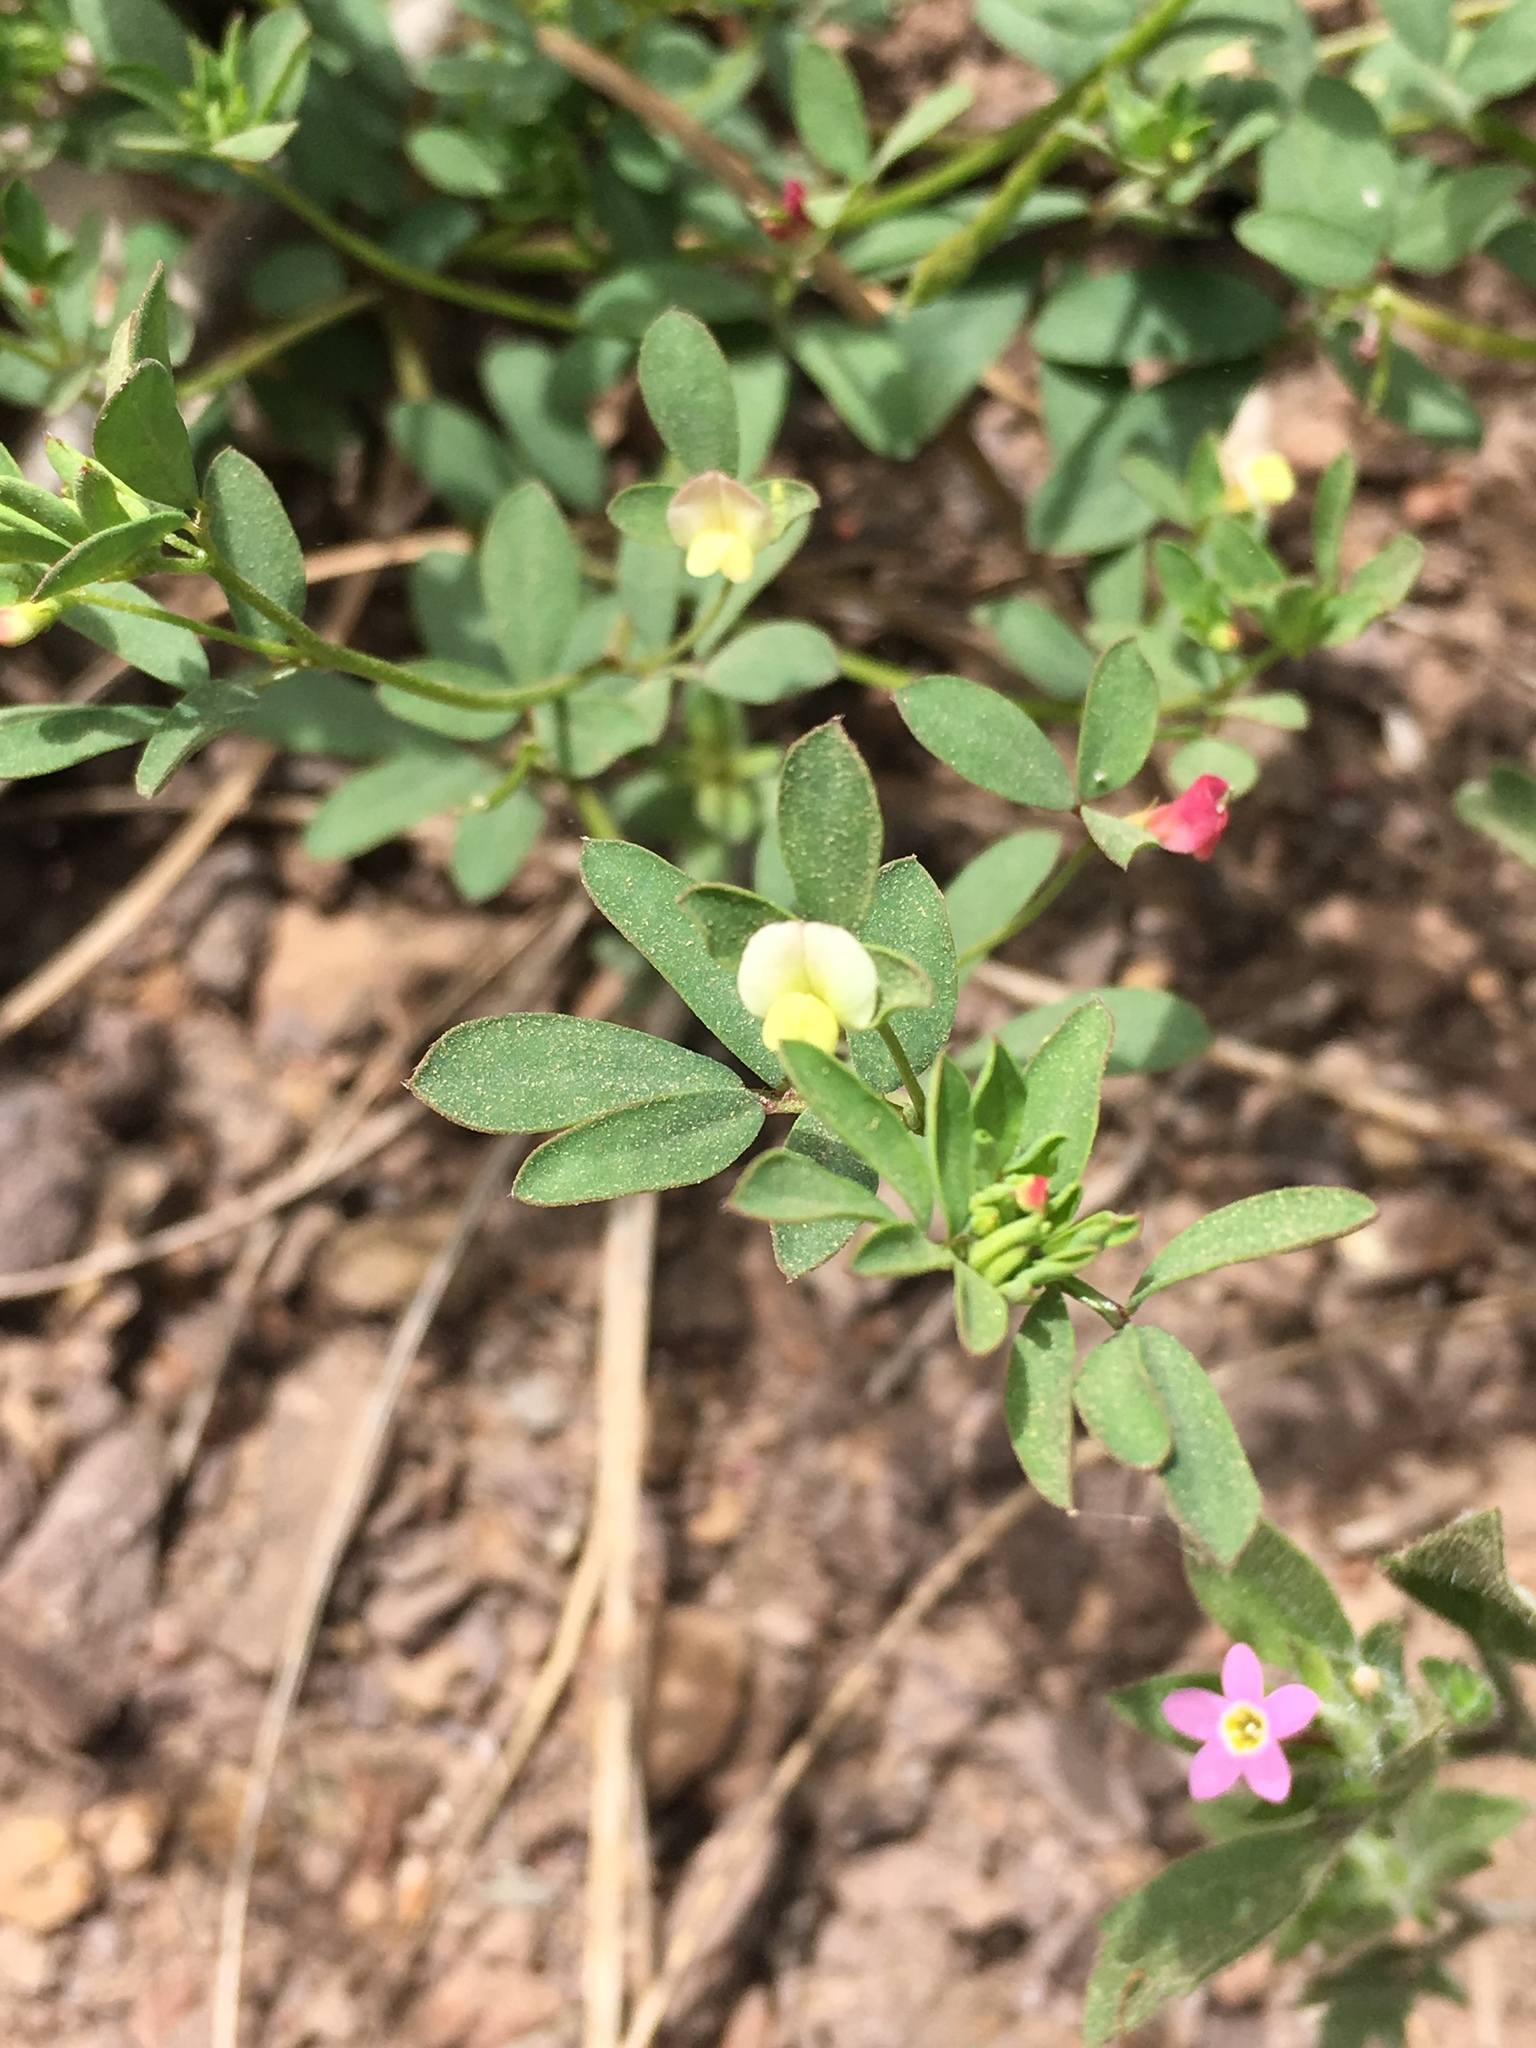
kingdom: Plantae
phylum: Tracheophyta
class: Magnoliopsida
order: Fabales
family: Fabaceae
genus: Acmispon
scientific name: Acmispon parviflorus
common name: Desert deer-vetch
